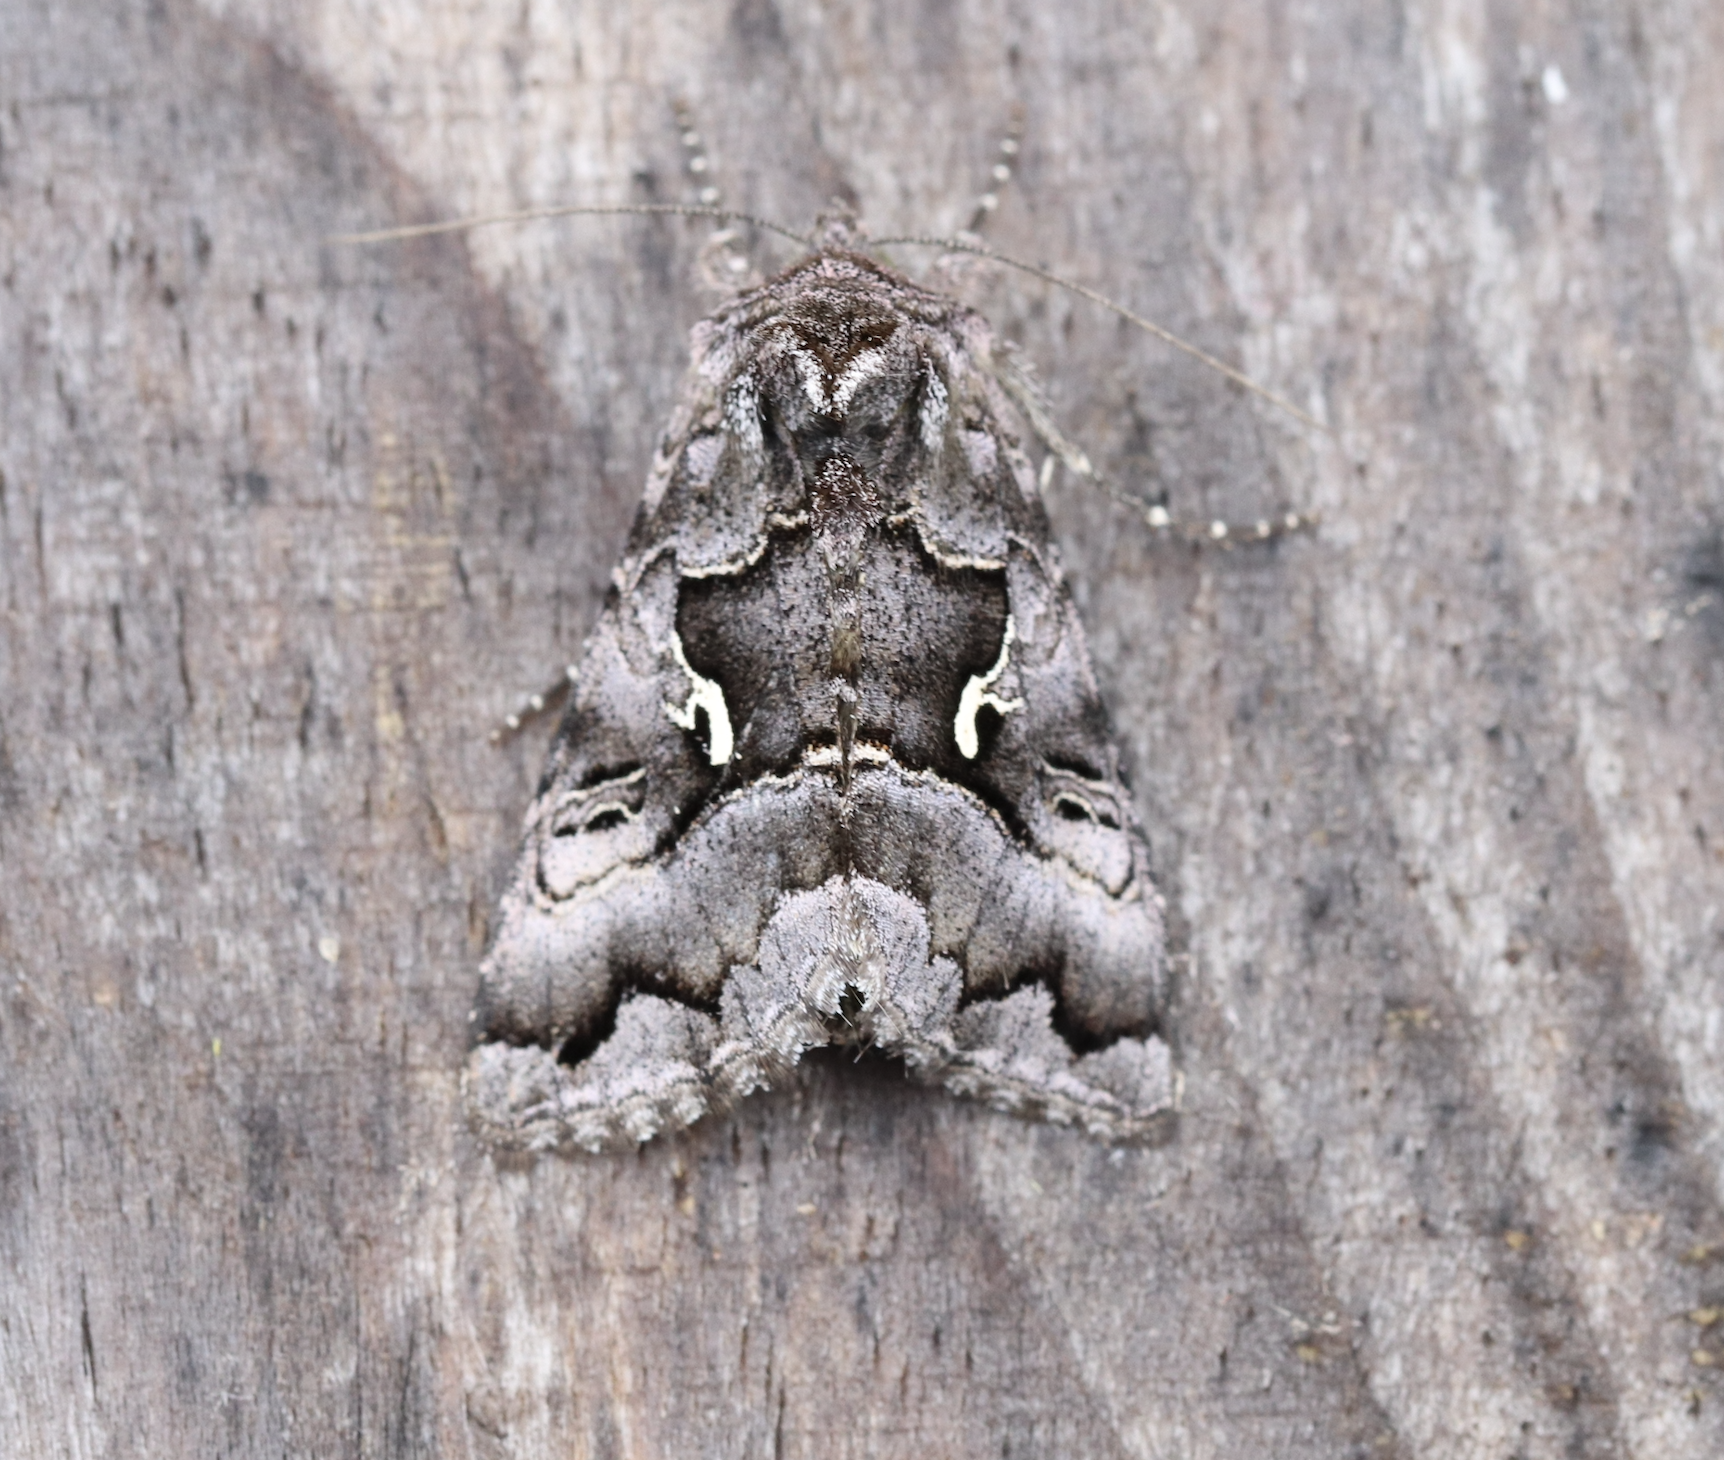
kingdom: Animalia
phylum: Arthropoda
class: Insecta
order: Lepidoptera
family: Noctuidae
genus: Syngrapha
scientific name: Syngrapha ain
